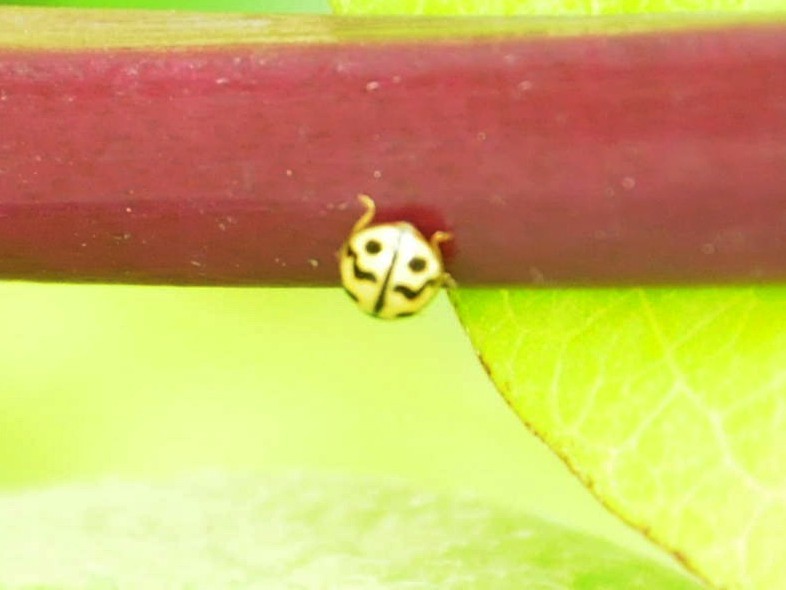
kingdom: Animalia
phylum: Arthropoda
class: Insecta
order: Coleoptera
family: Coccinellidae
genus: Cheilomenes
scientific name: Cheilomenes sexmaculata
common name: Ladybird beetle
